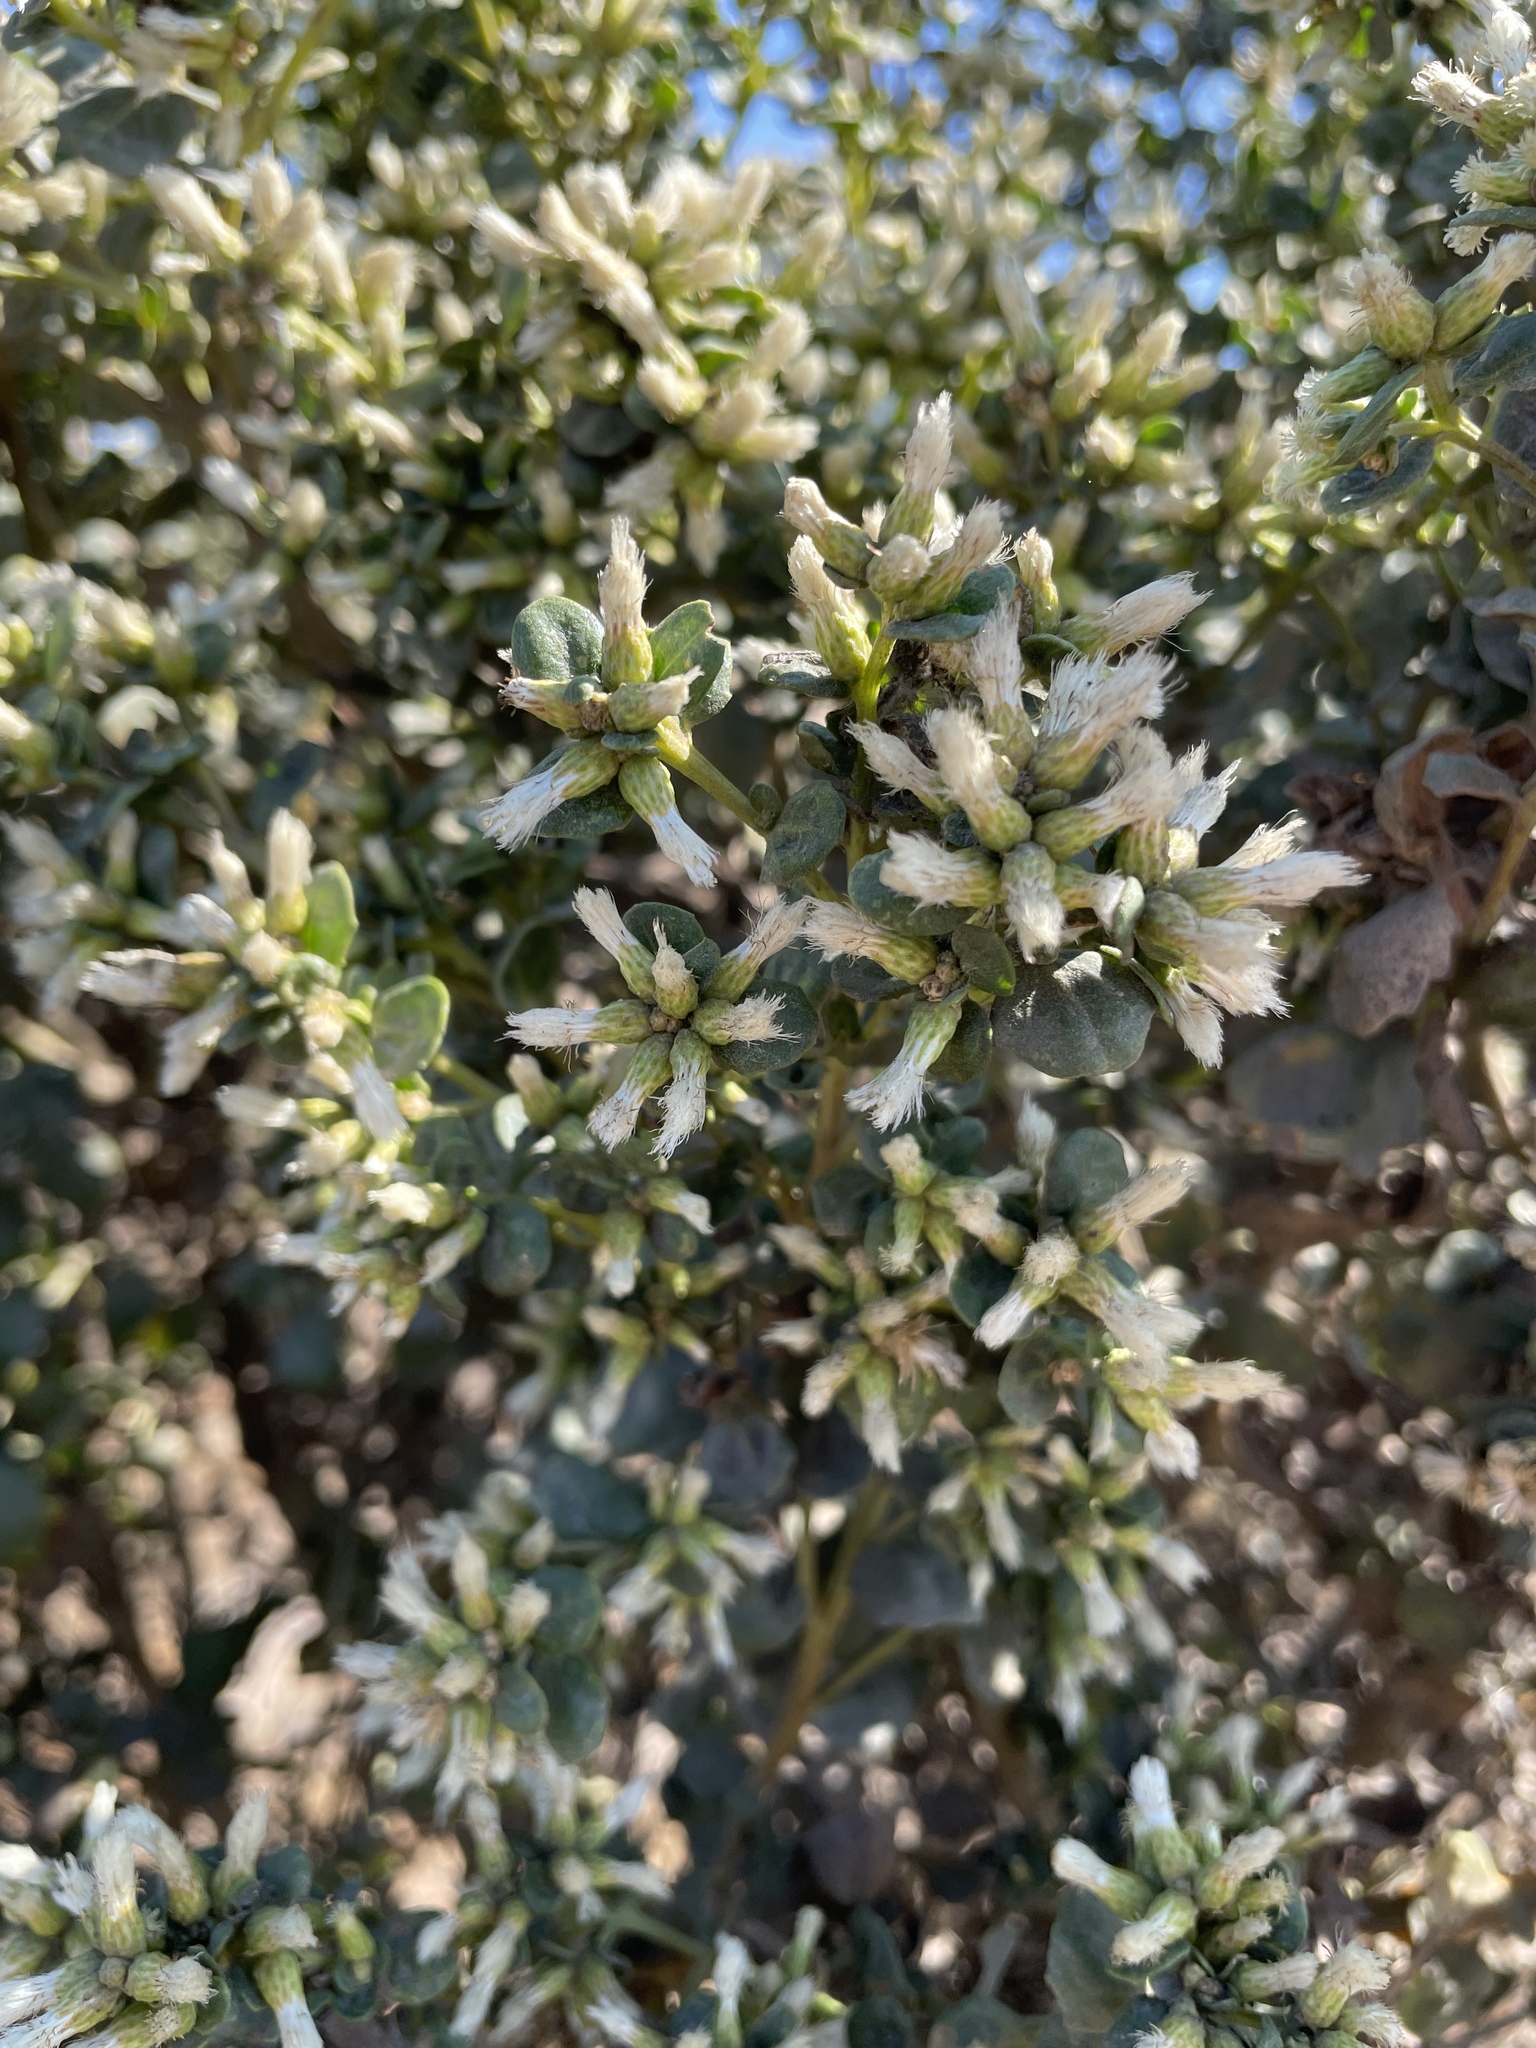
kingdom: Plantae
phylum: Tracheophyta
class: Magnoliopsida
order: Asterales
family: Asteraceae
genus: Baccharis
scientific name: Baccharis pilularis
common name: Coyotebrush
